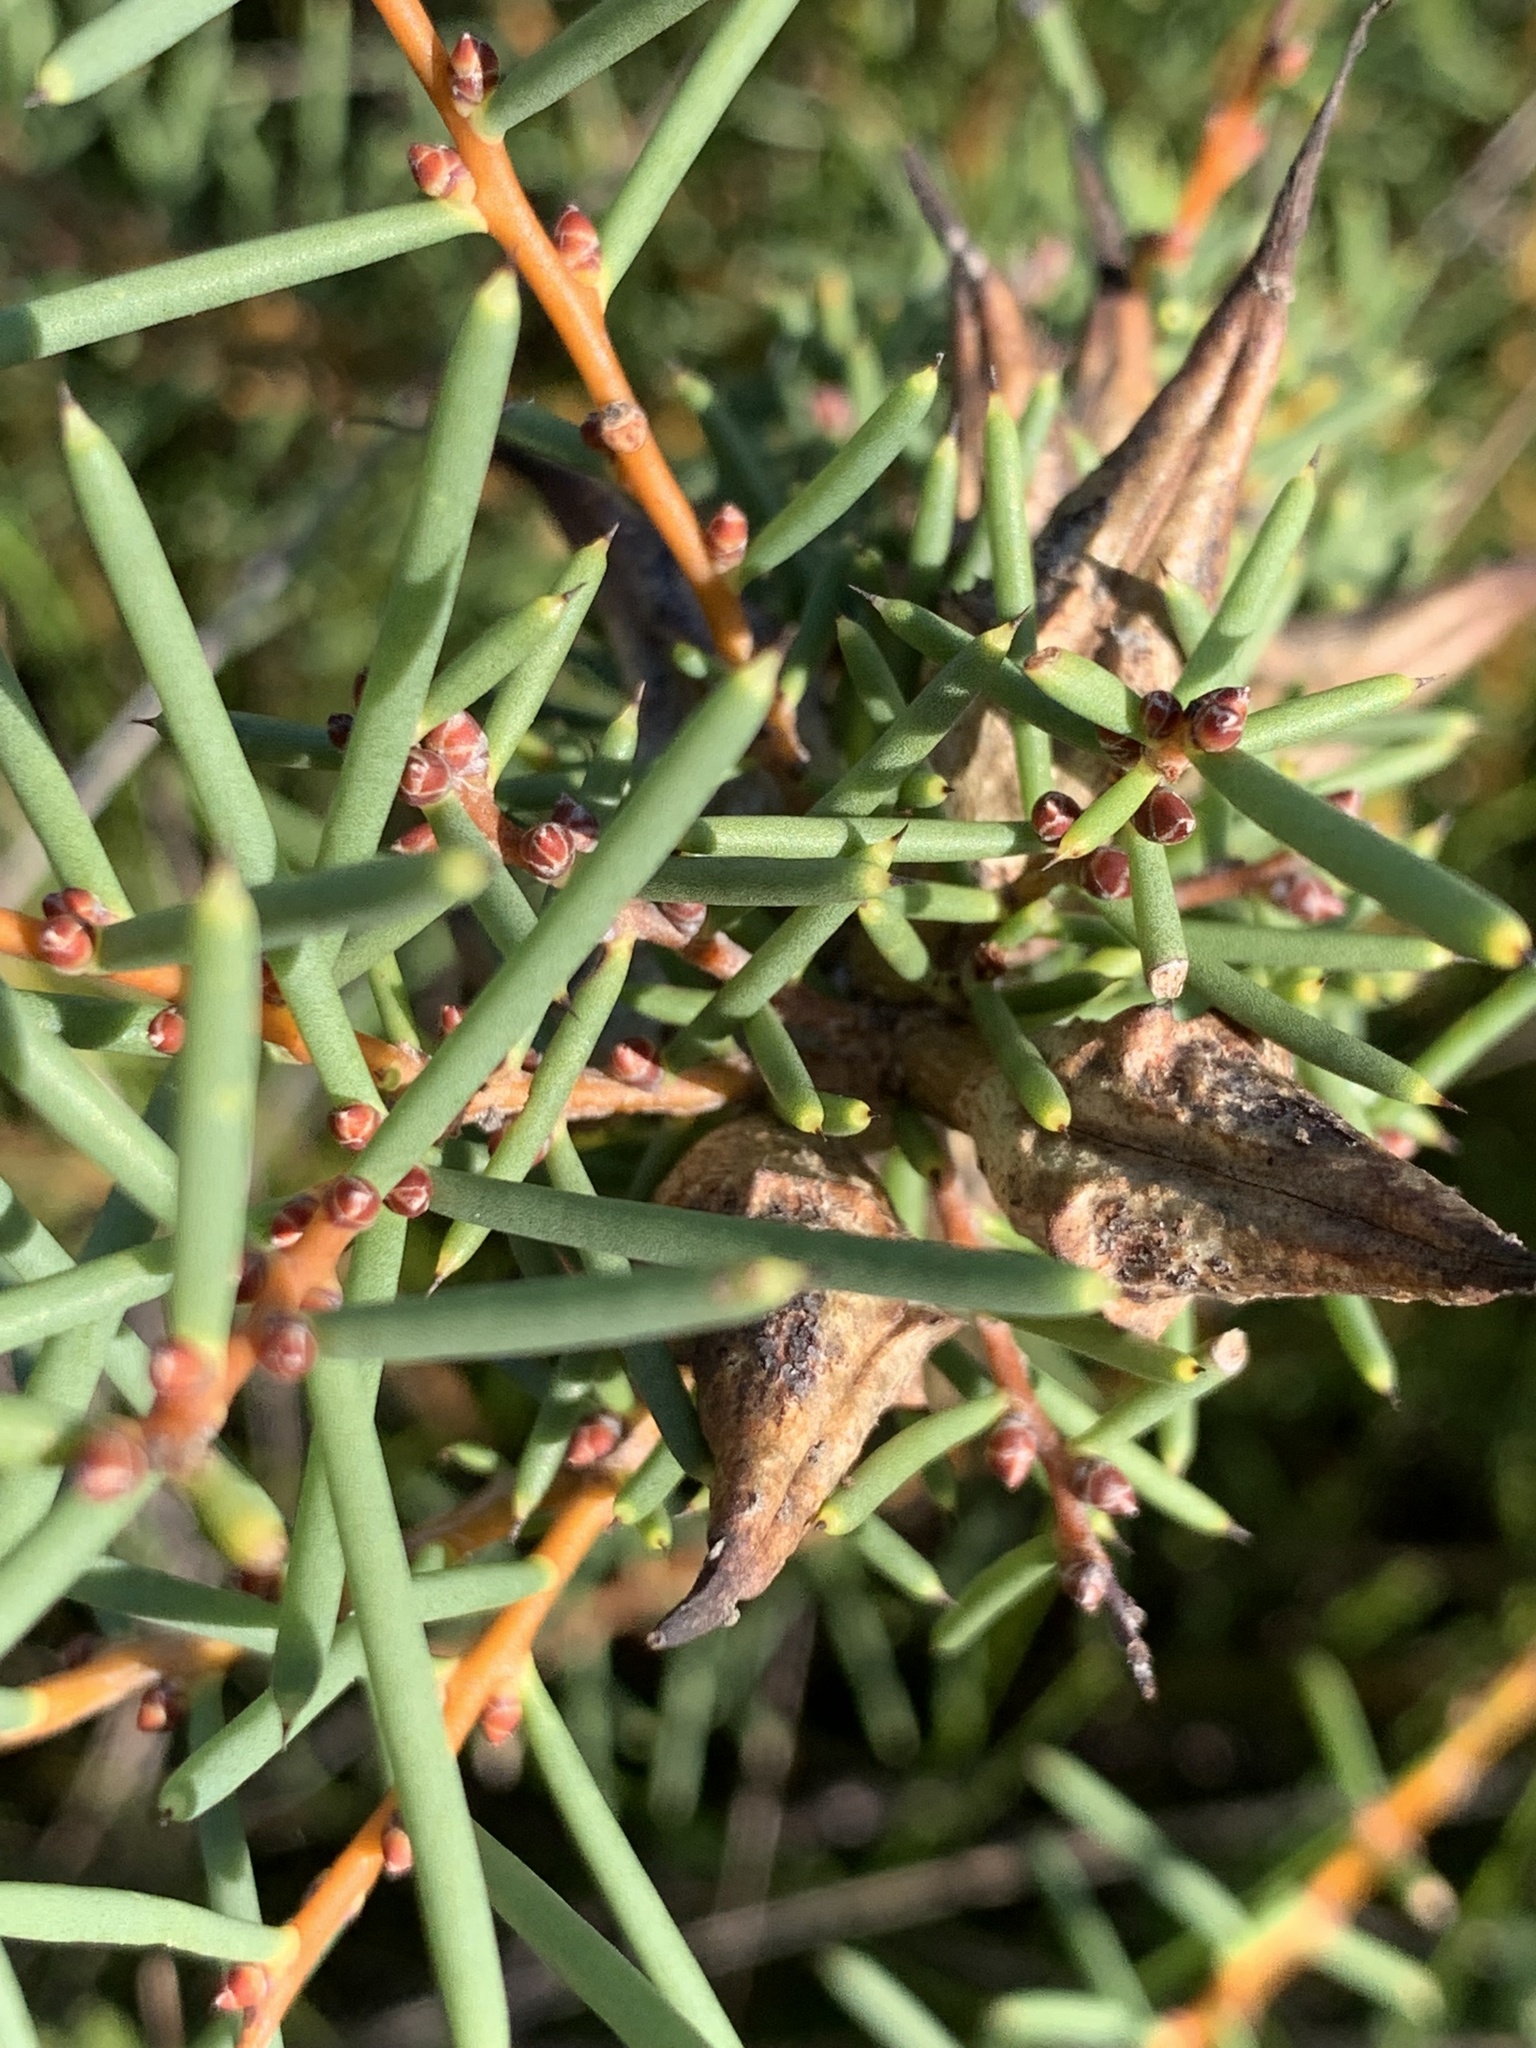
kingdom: Plantae
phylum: Tracheophyta
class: Magnoliopsida
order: Proteales
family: Proteaceae
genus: Hakea
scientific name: Hakea teretifolia
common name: Dagger hakea
